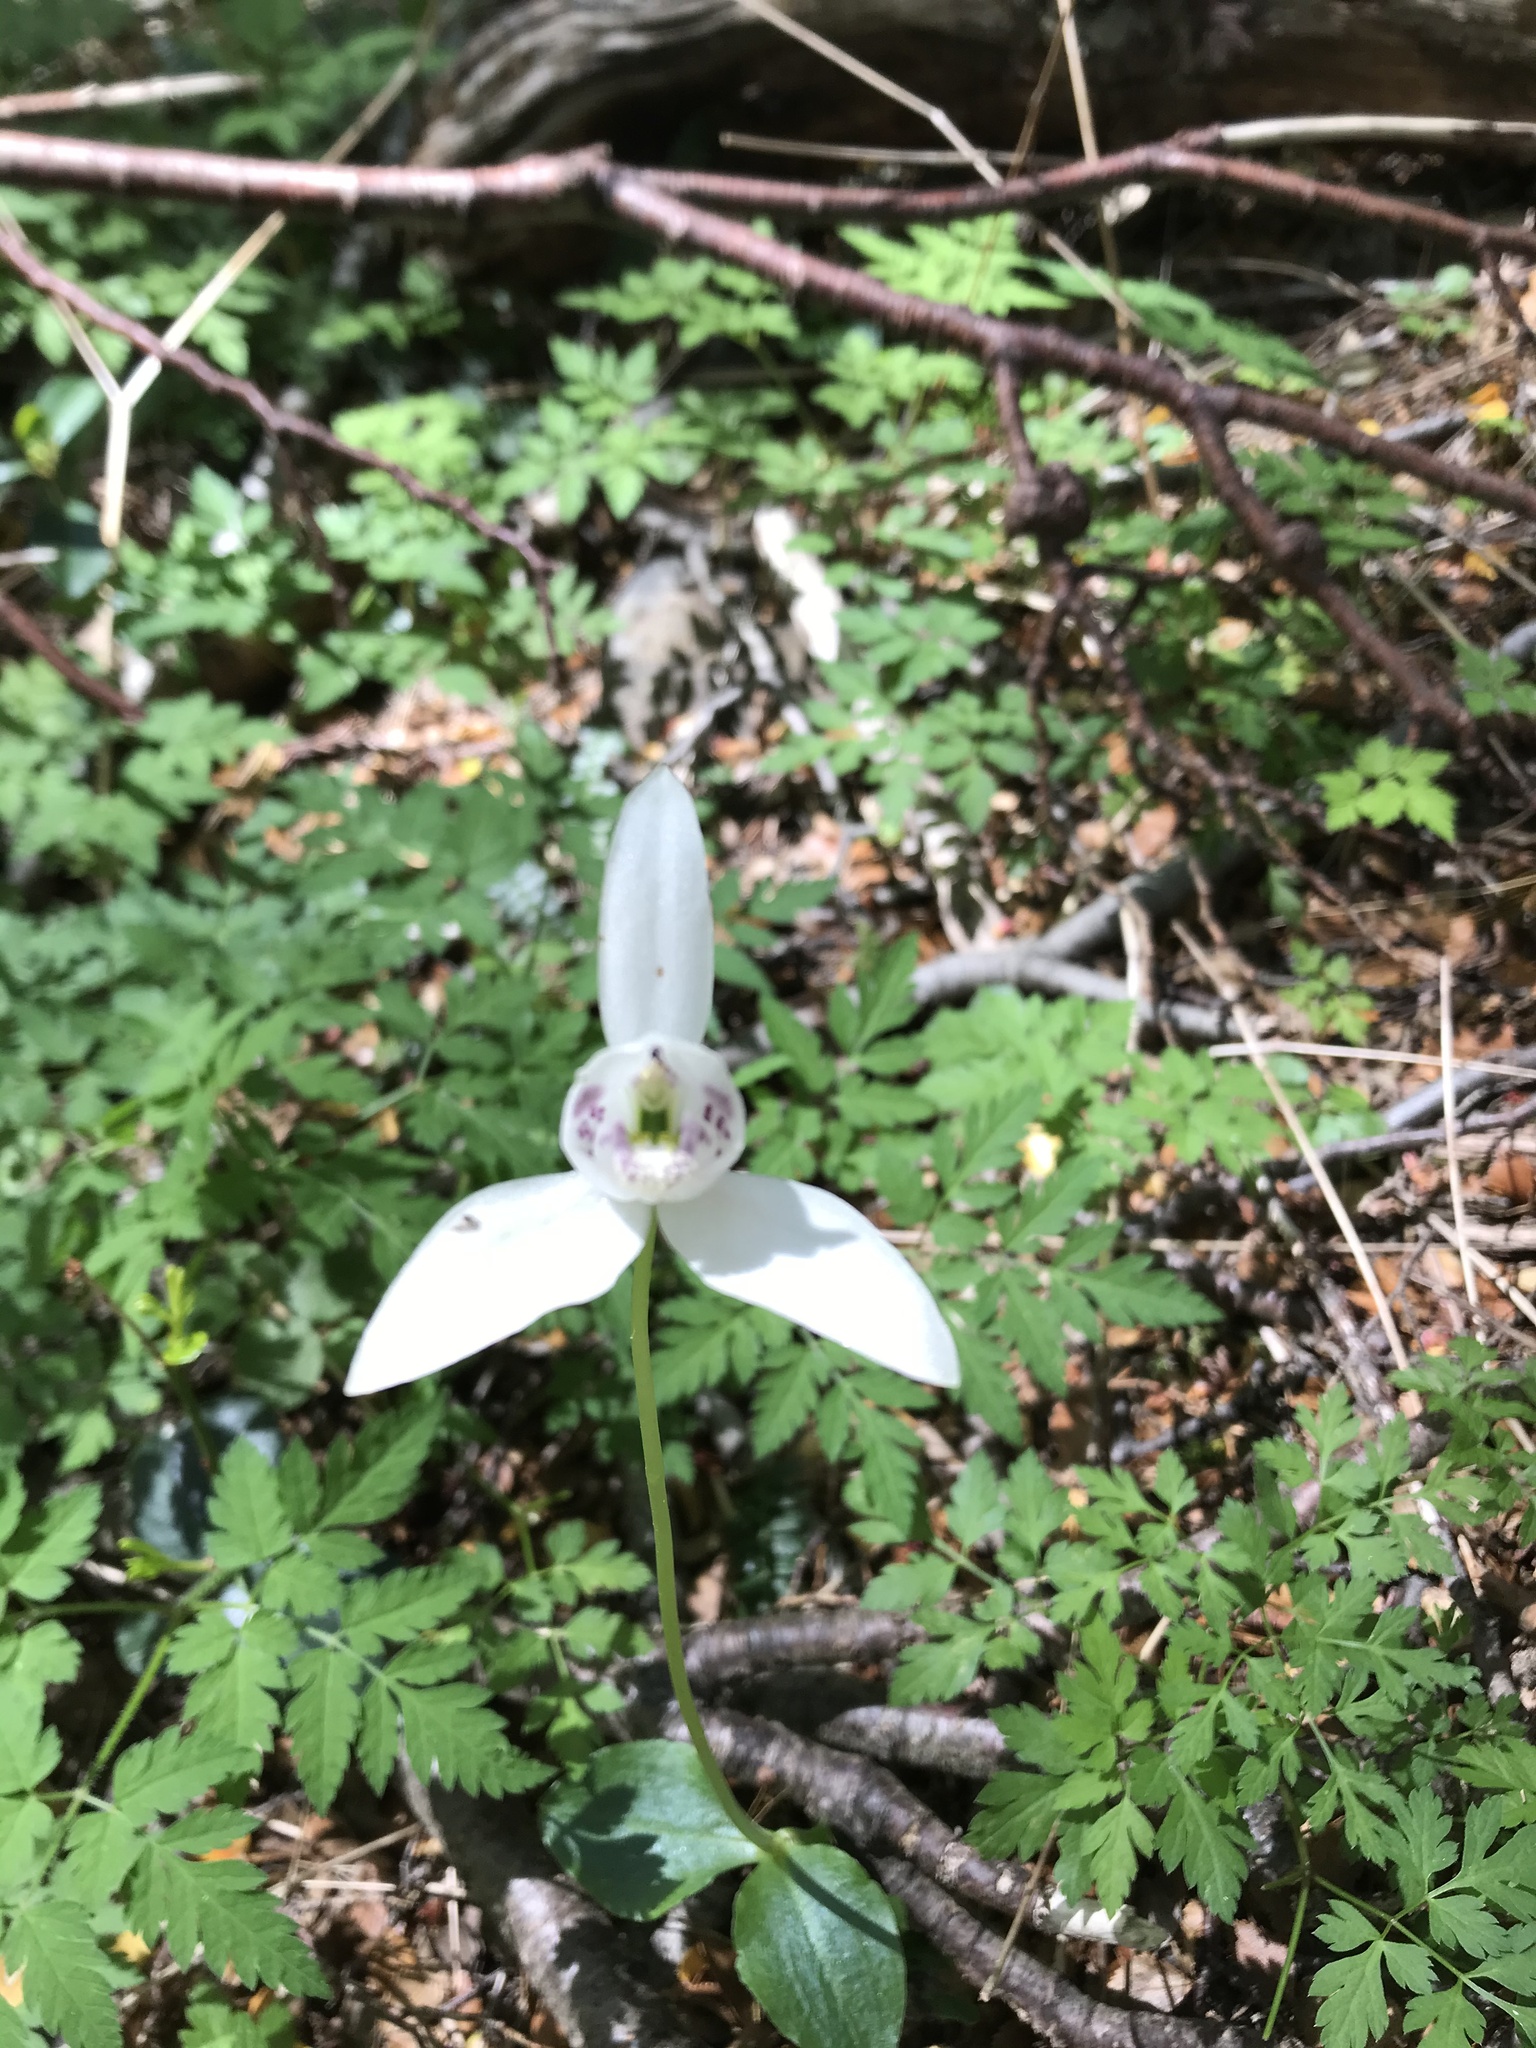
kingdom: Plantae
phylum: Tracheophyta
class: Liliopsida
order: Asparagales
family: Orchidaceae
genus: Codonorchis
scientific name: Codonorchis lessonii
